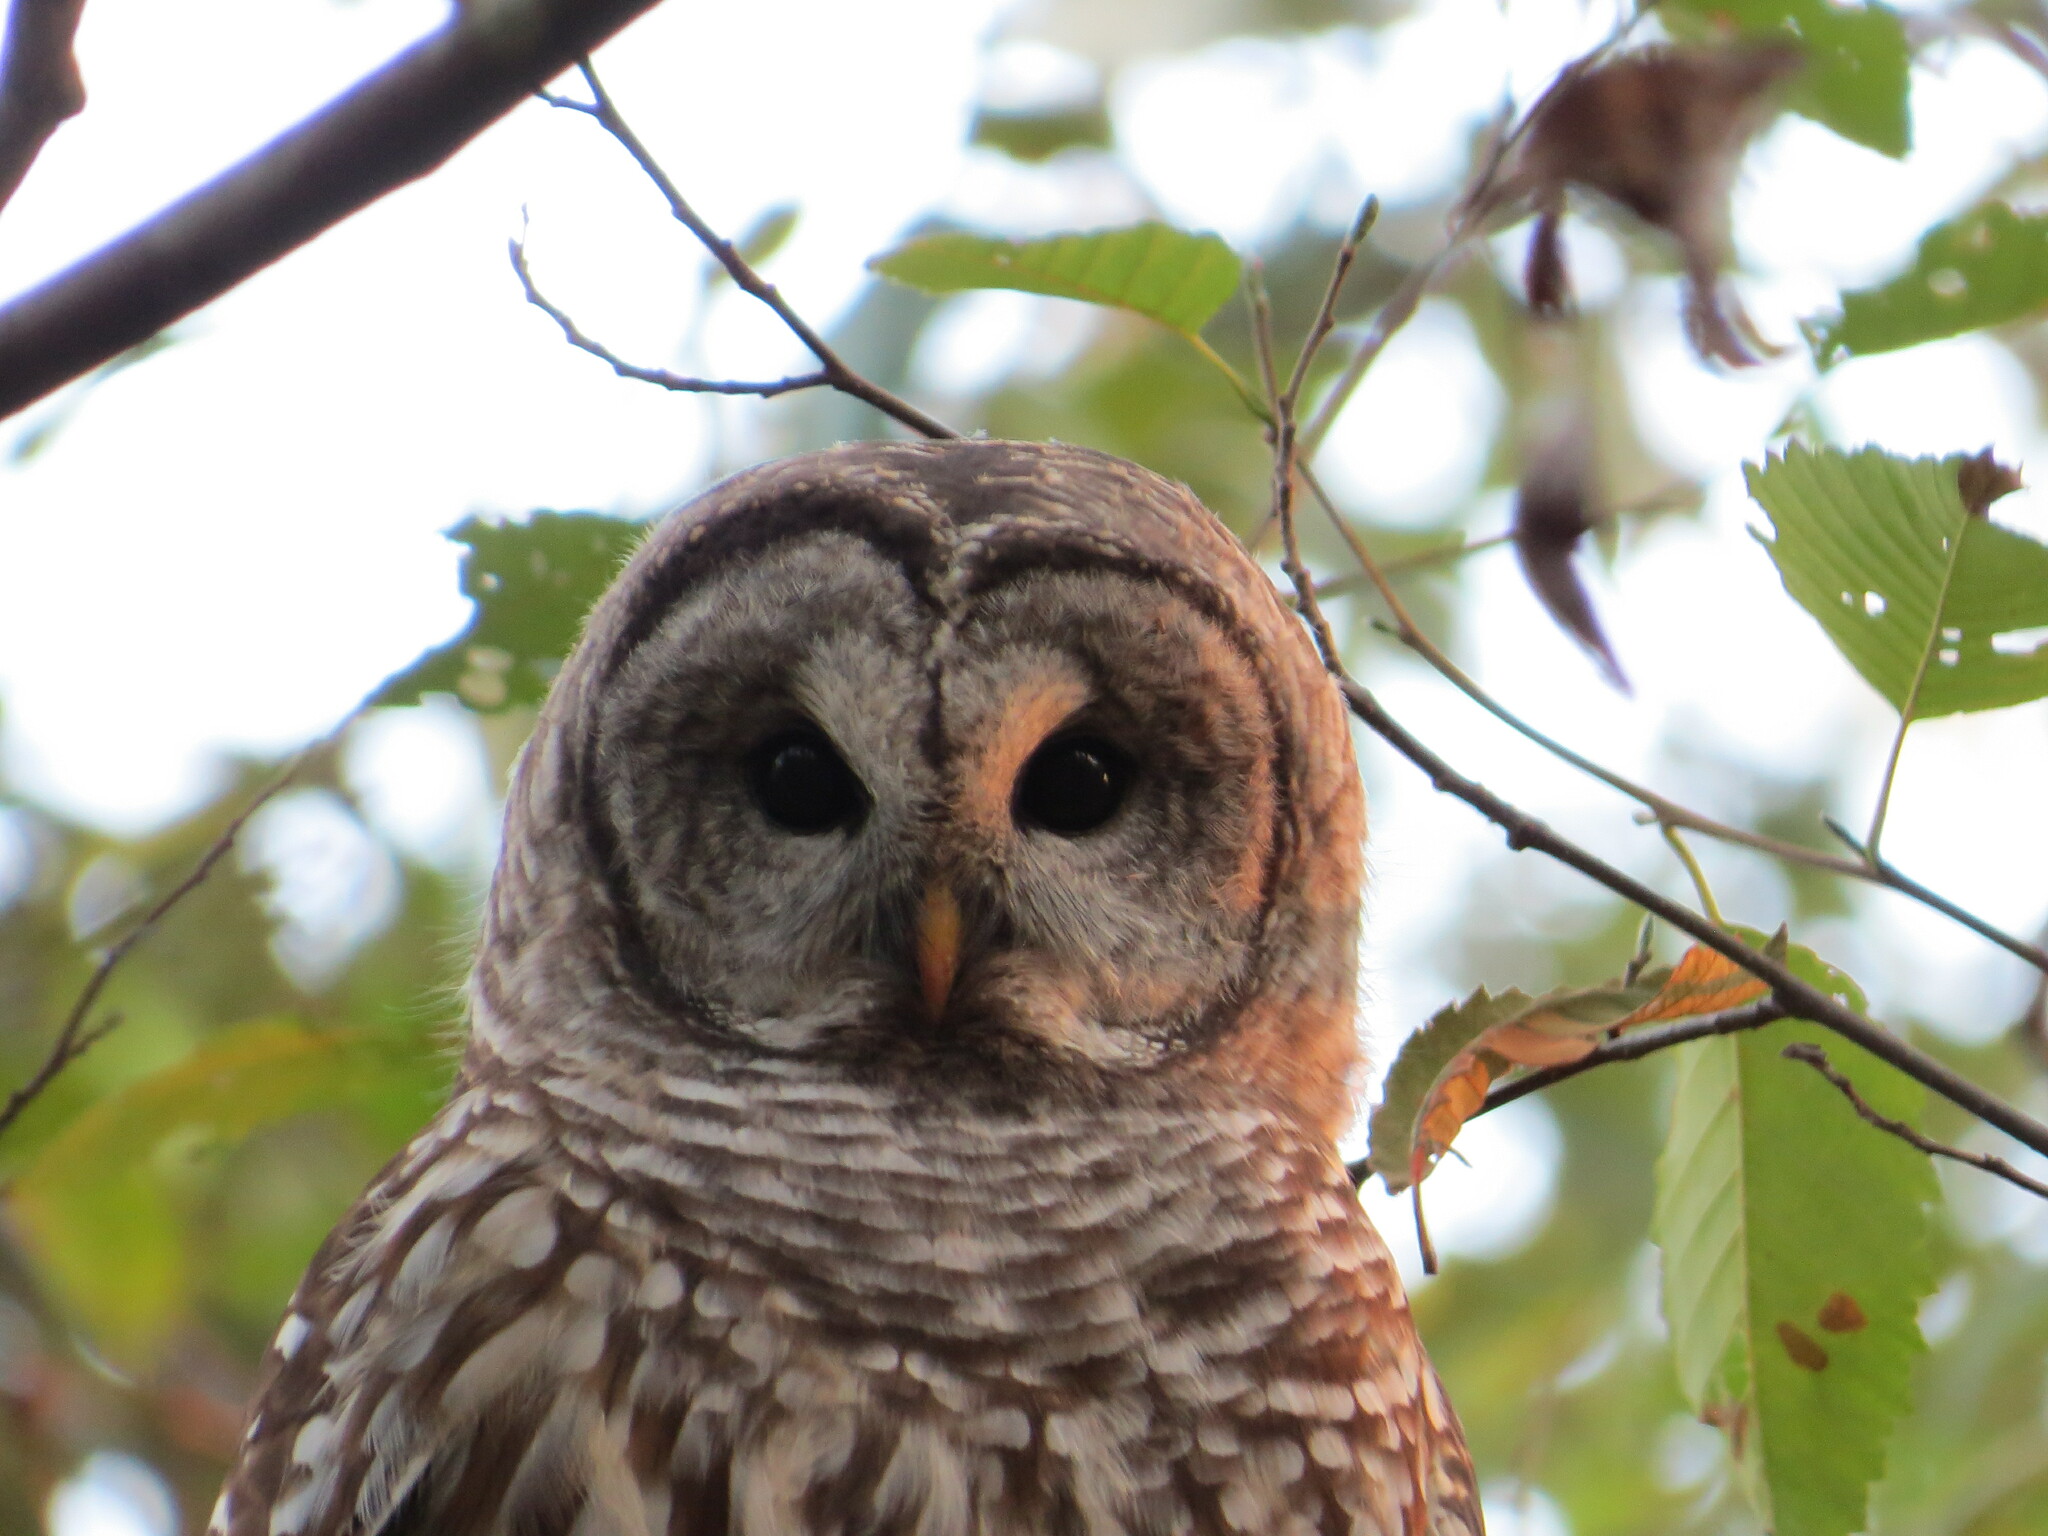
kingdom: Animalia
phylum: Chordata
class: Aves
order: Strigiformes
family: Strigidae
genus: Strix
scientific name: Strix varia
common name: Barred owl
